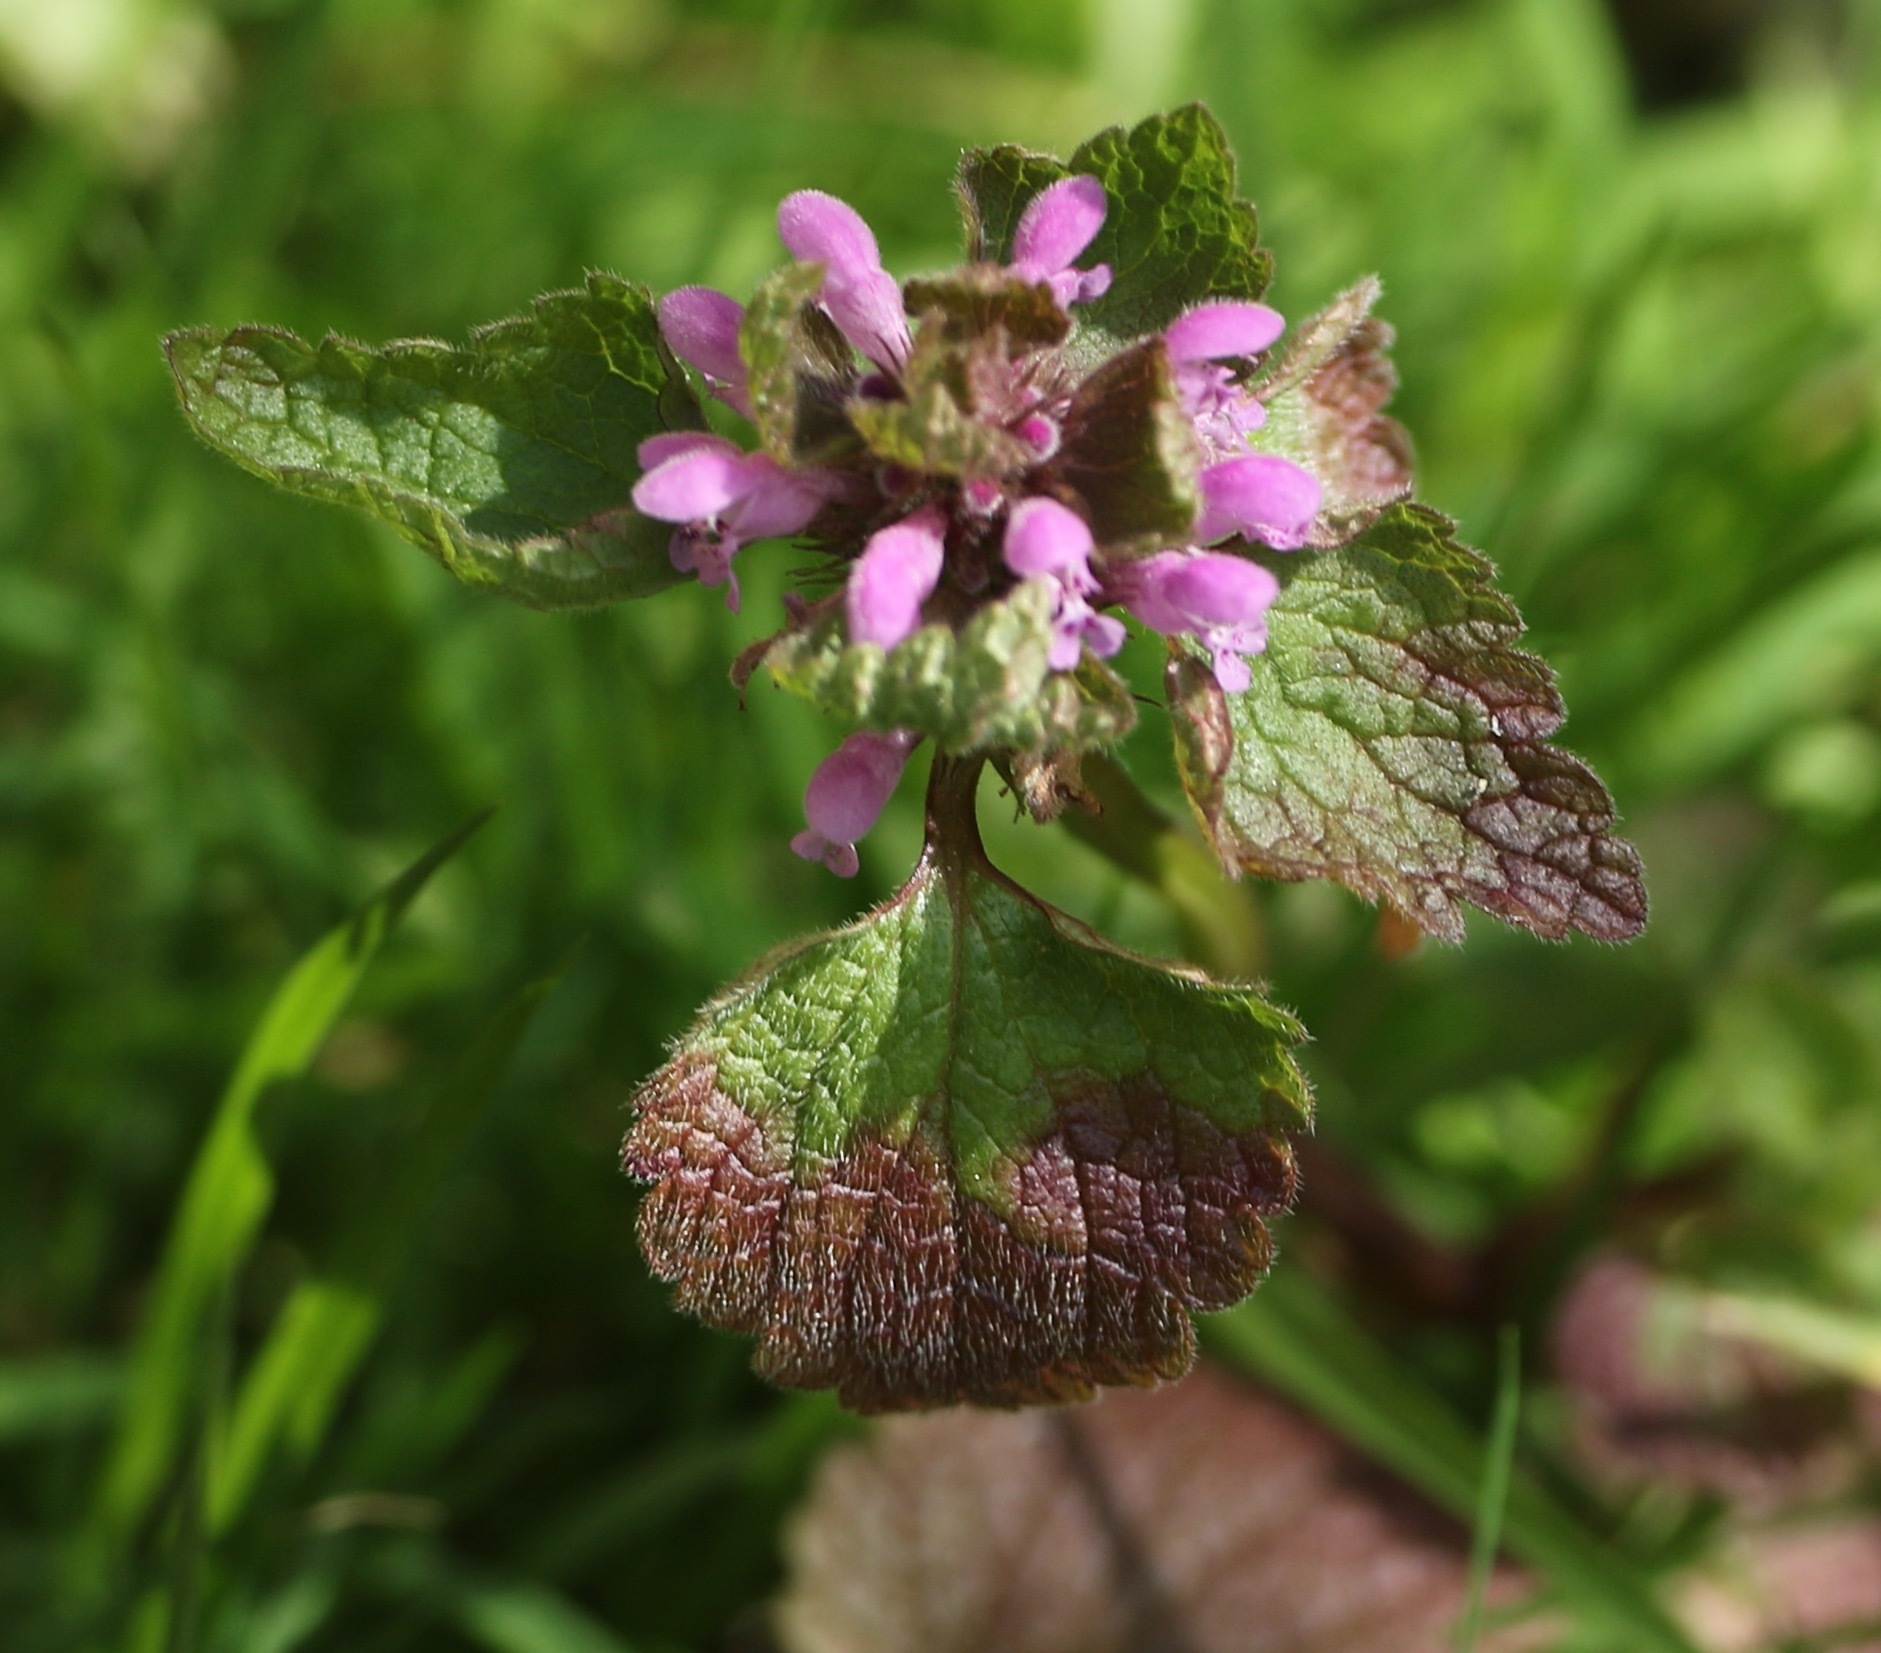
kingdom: Plantae
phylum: Tracheophyta
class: Magnoliopsida
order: Lamiales
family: Lamiaceae
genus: Lamium
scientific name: Lamium purpureum
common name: Red dead-nettle
